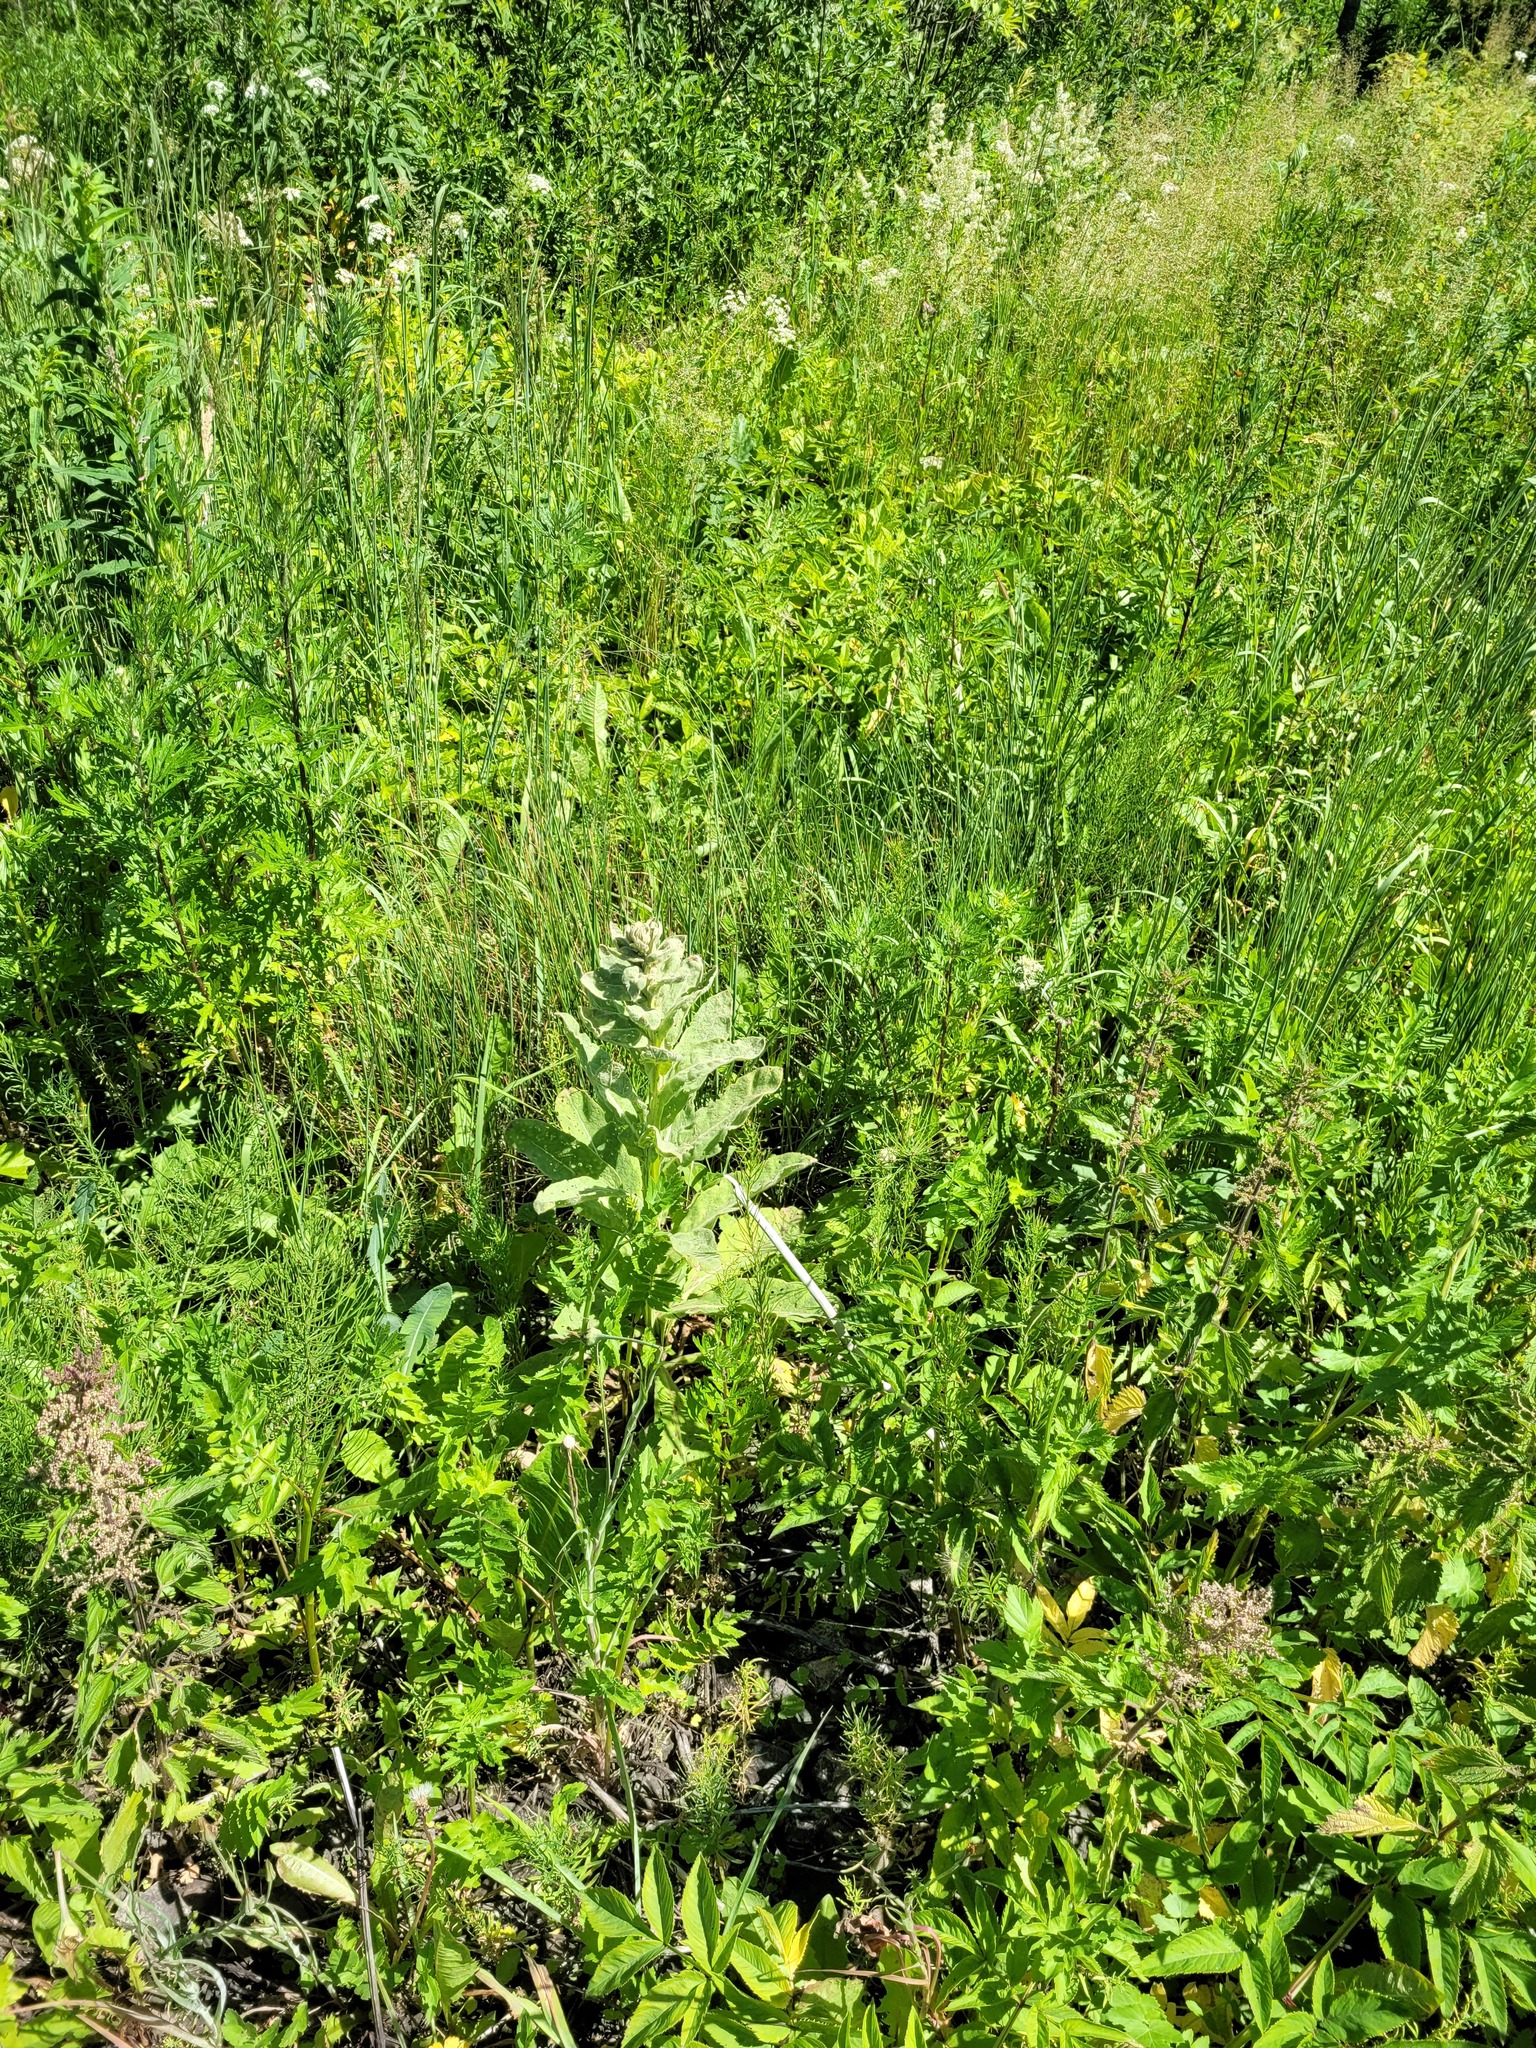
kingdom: Plantae
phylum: Tracheophyta
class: Magnoliopsida
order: Lamiales
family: Scrophulariaceae
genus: Verbascum
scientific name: Verbascum thapsus
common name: Common mullein
